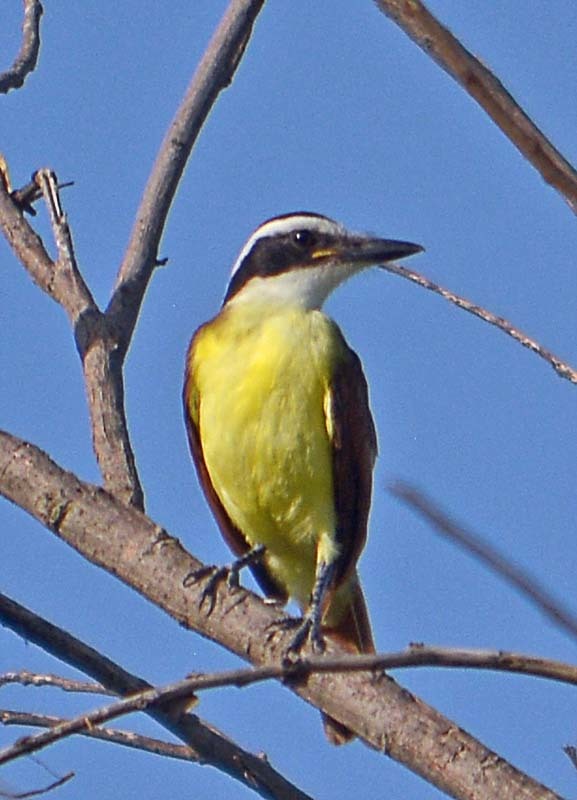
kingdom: Animalia
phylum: Chordata
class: Aves
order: Passeriformes
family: Tyrannidae
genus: Pitangus
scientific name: Pitangus sulphuratus
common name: Great kiskadee
